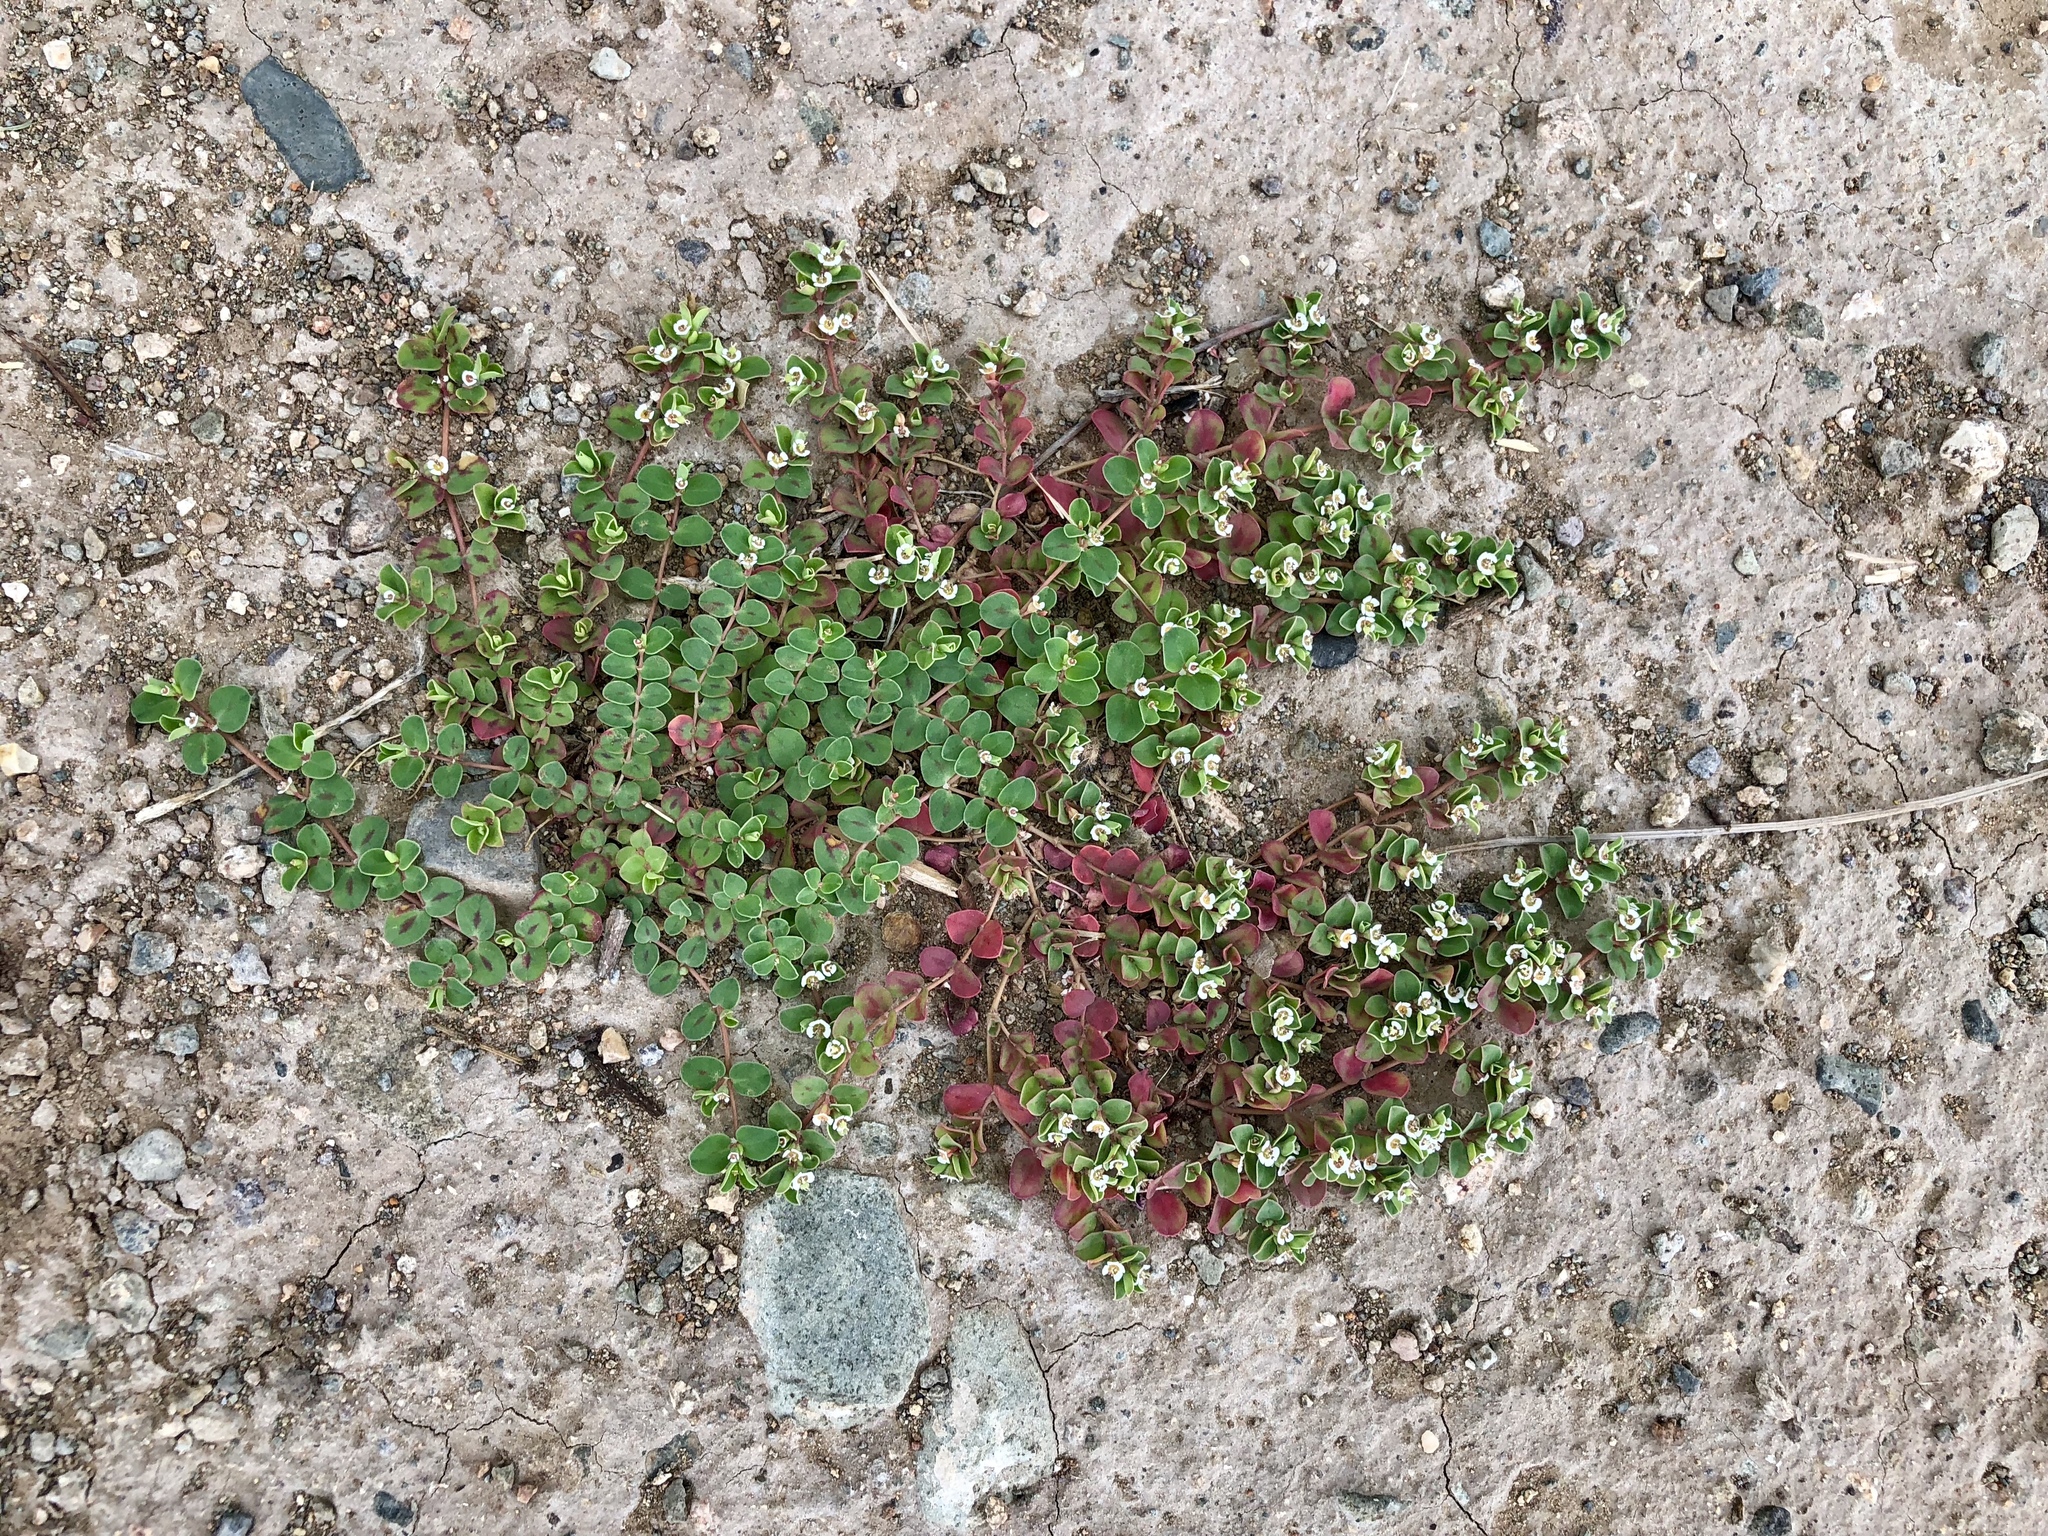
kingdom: Plantae
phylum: Tracheophyta
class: Magnoliopsida
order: Malpighiales
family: Euphorbiaceae
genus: Euphorbia
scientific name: Euphorbia albomarginata
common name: Whitemargin sandmat
